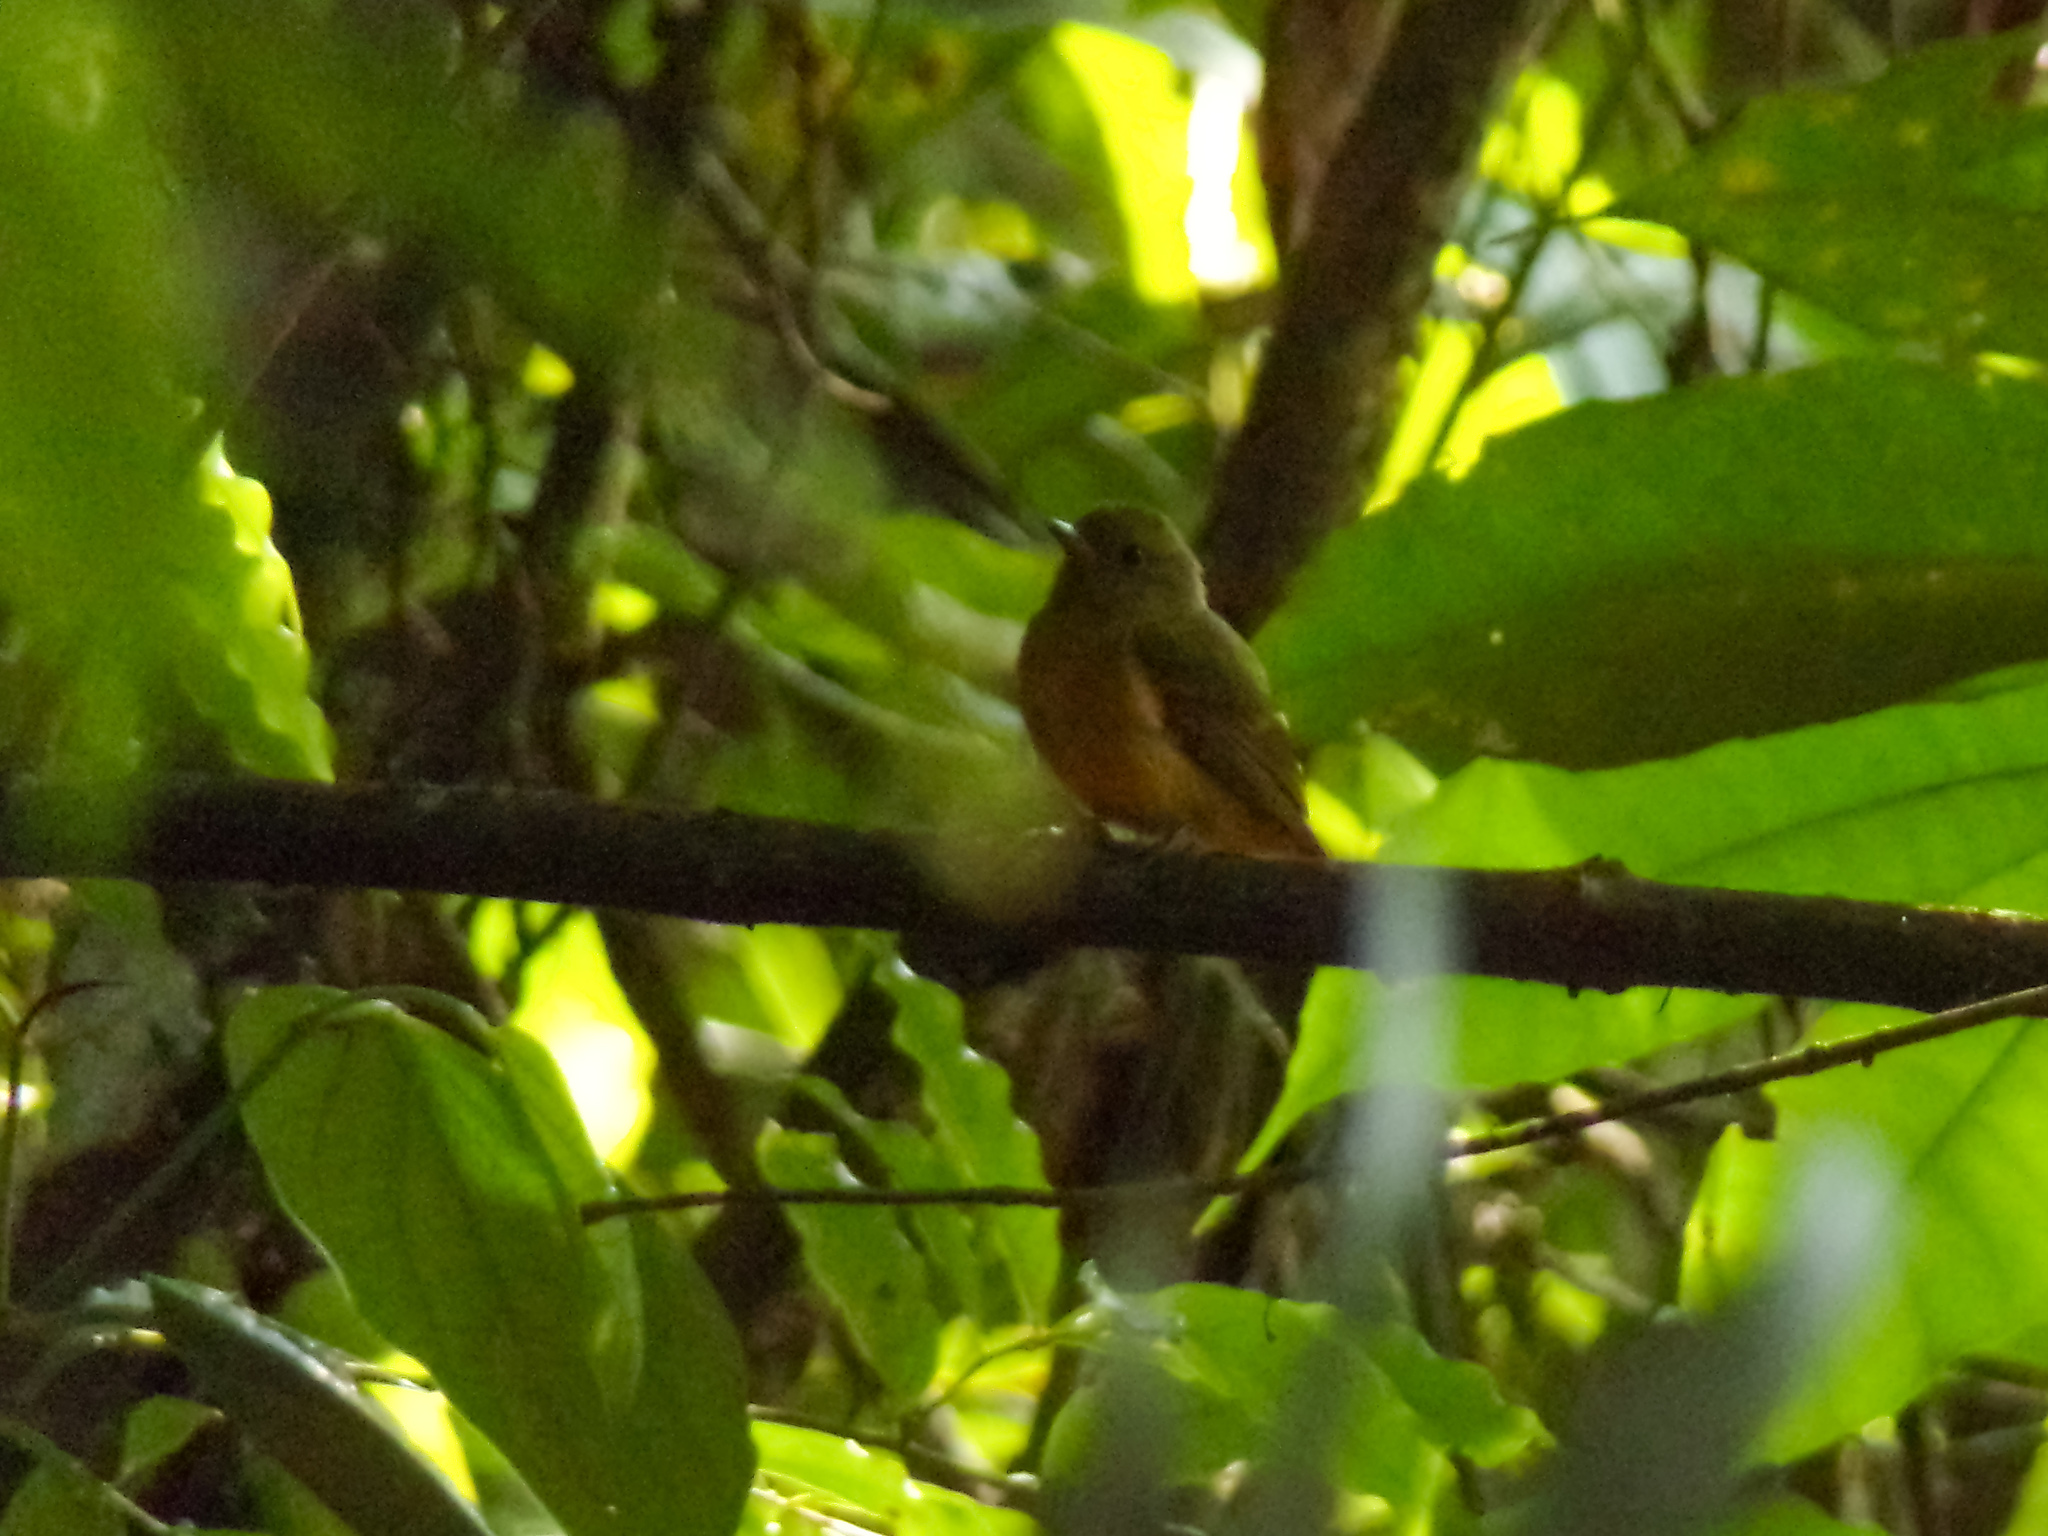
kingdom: Animalia
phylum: Chordata
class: Aves
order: Passeriformes
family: Tyrannidae
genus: Mionectes
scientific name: Mionectes oleagineus
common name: Ochre-bellied flycatcher
